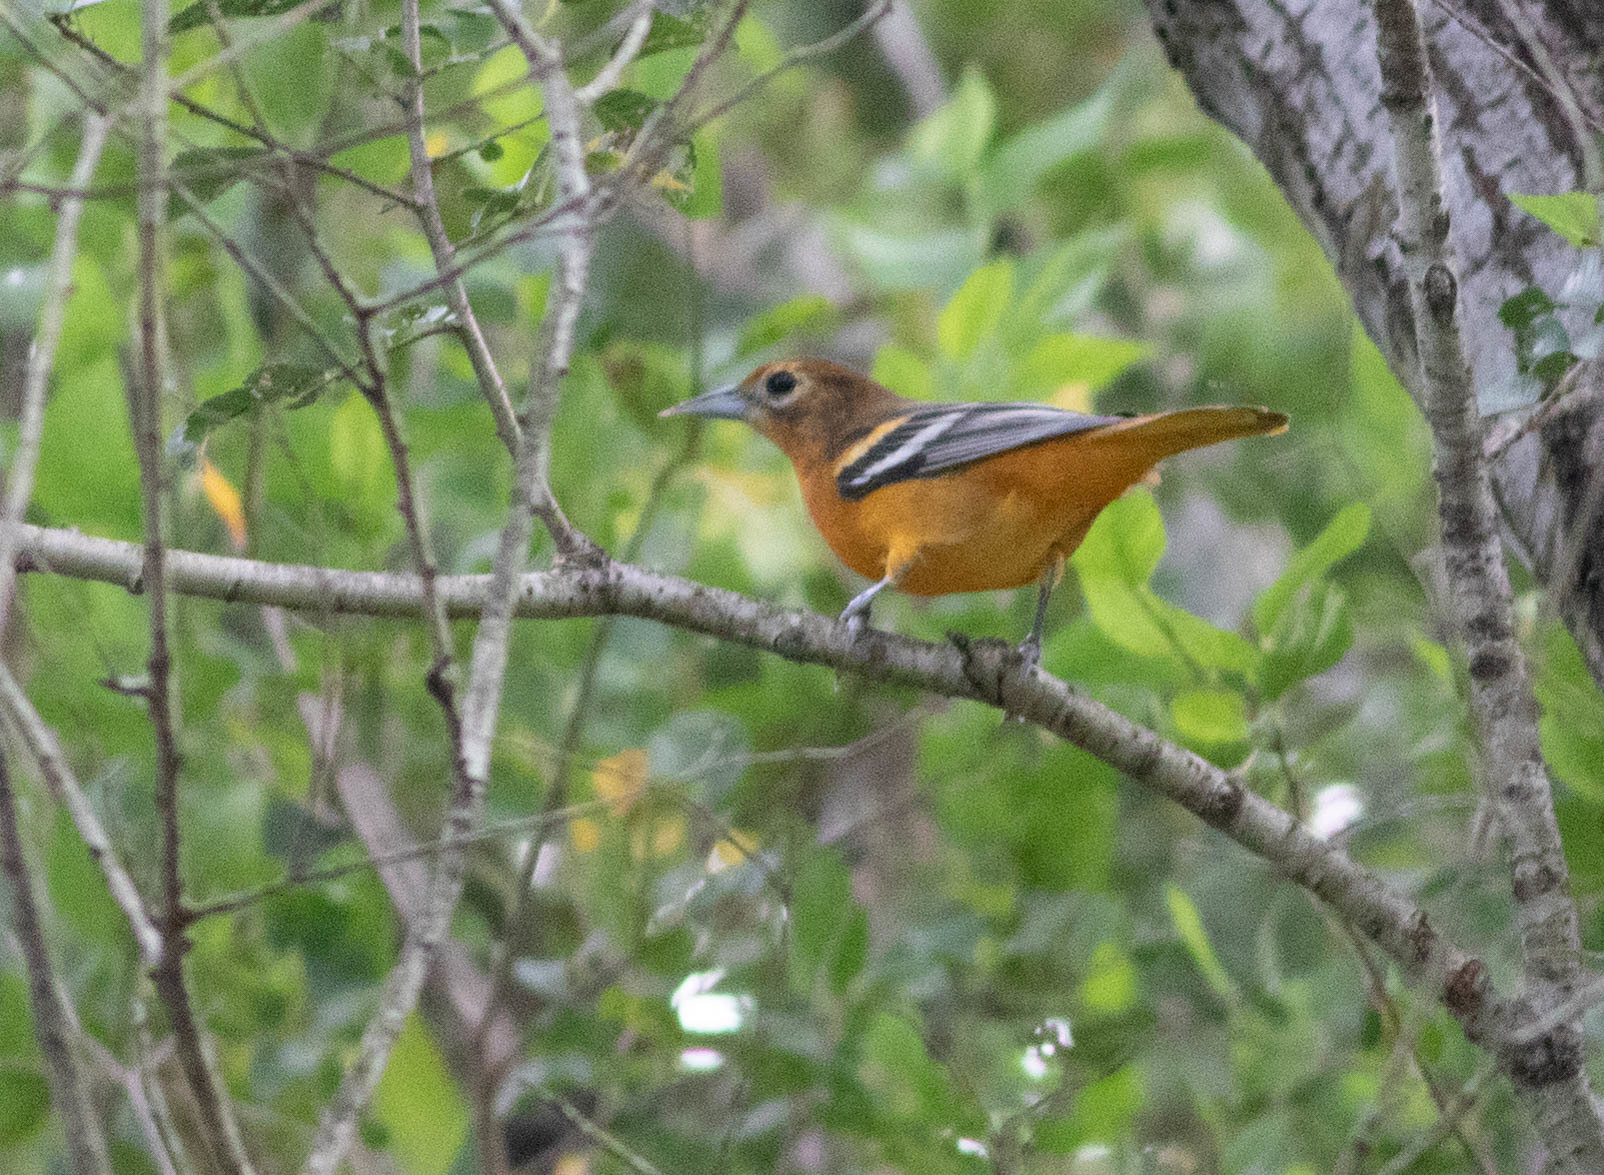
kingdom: Animalia
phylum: Chordata
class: Aves
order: Passeriformes
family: Icteridae
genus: Icterus
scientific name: Icterus galbula
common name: Baltimore oriole
